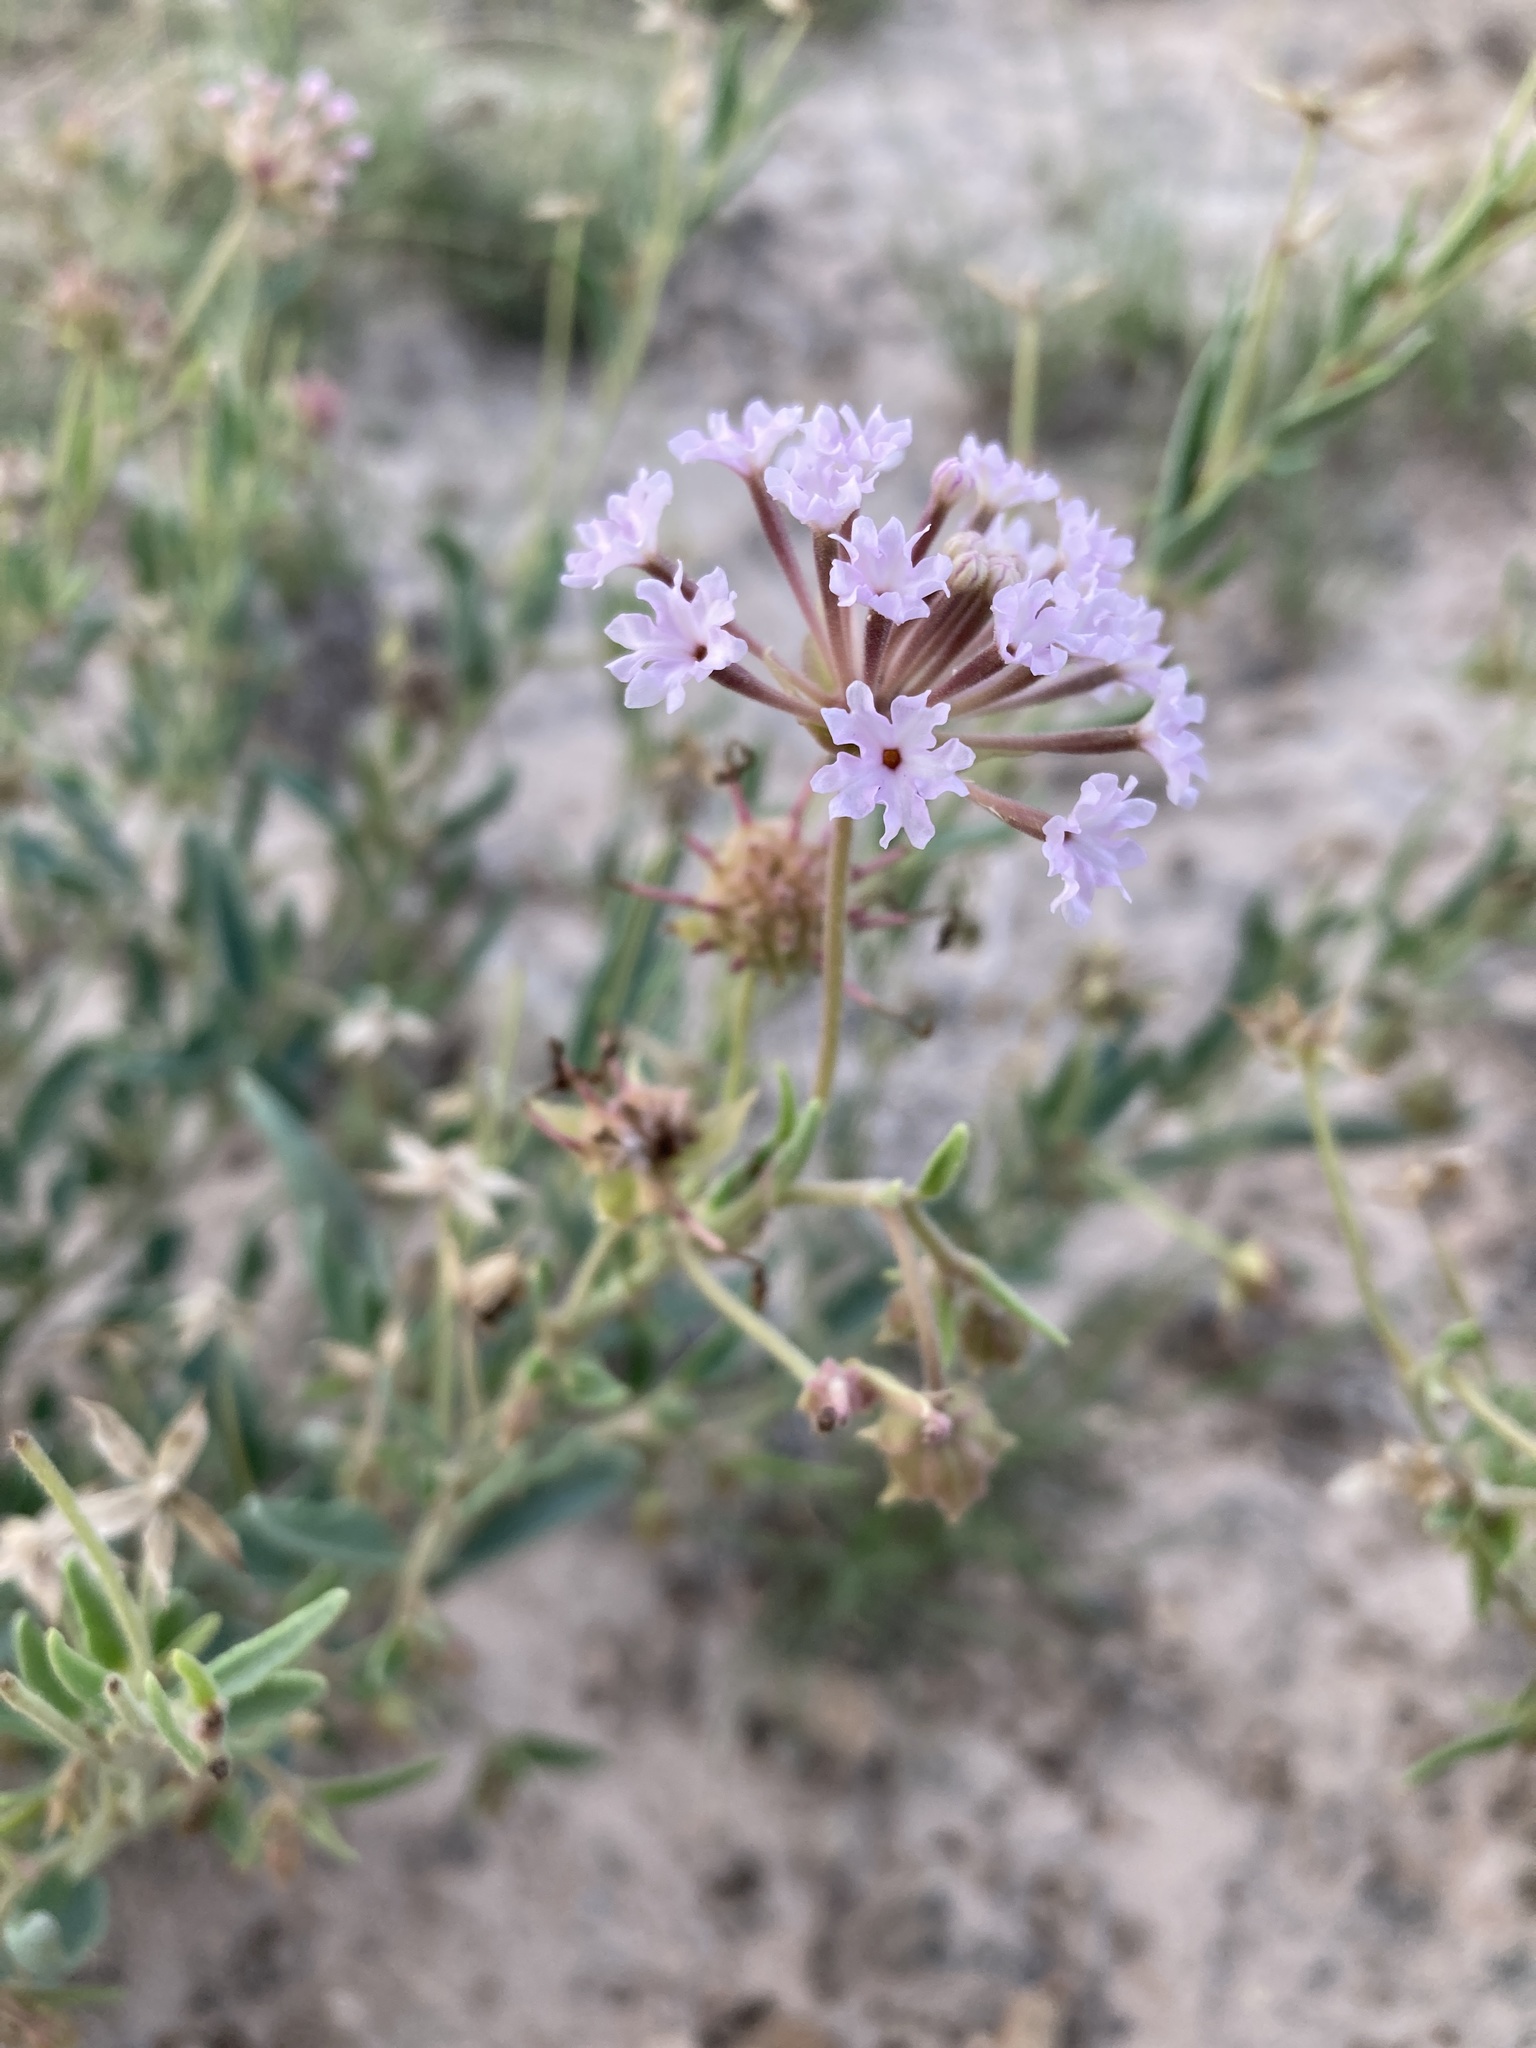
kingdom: Plantae
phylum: Tracheophyta
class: Magnoliopsida
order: Caryophyllales
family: Nyctaginaceae
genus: Abronia
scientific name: Abronia carletonii
